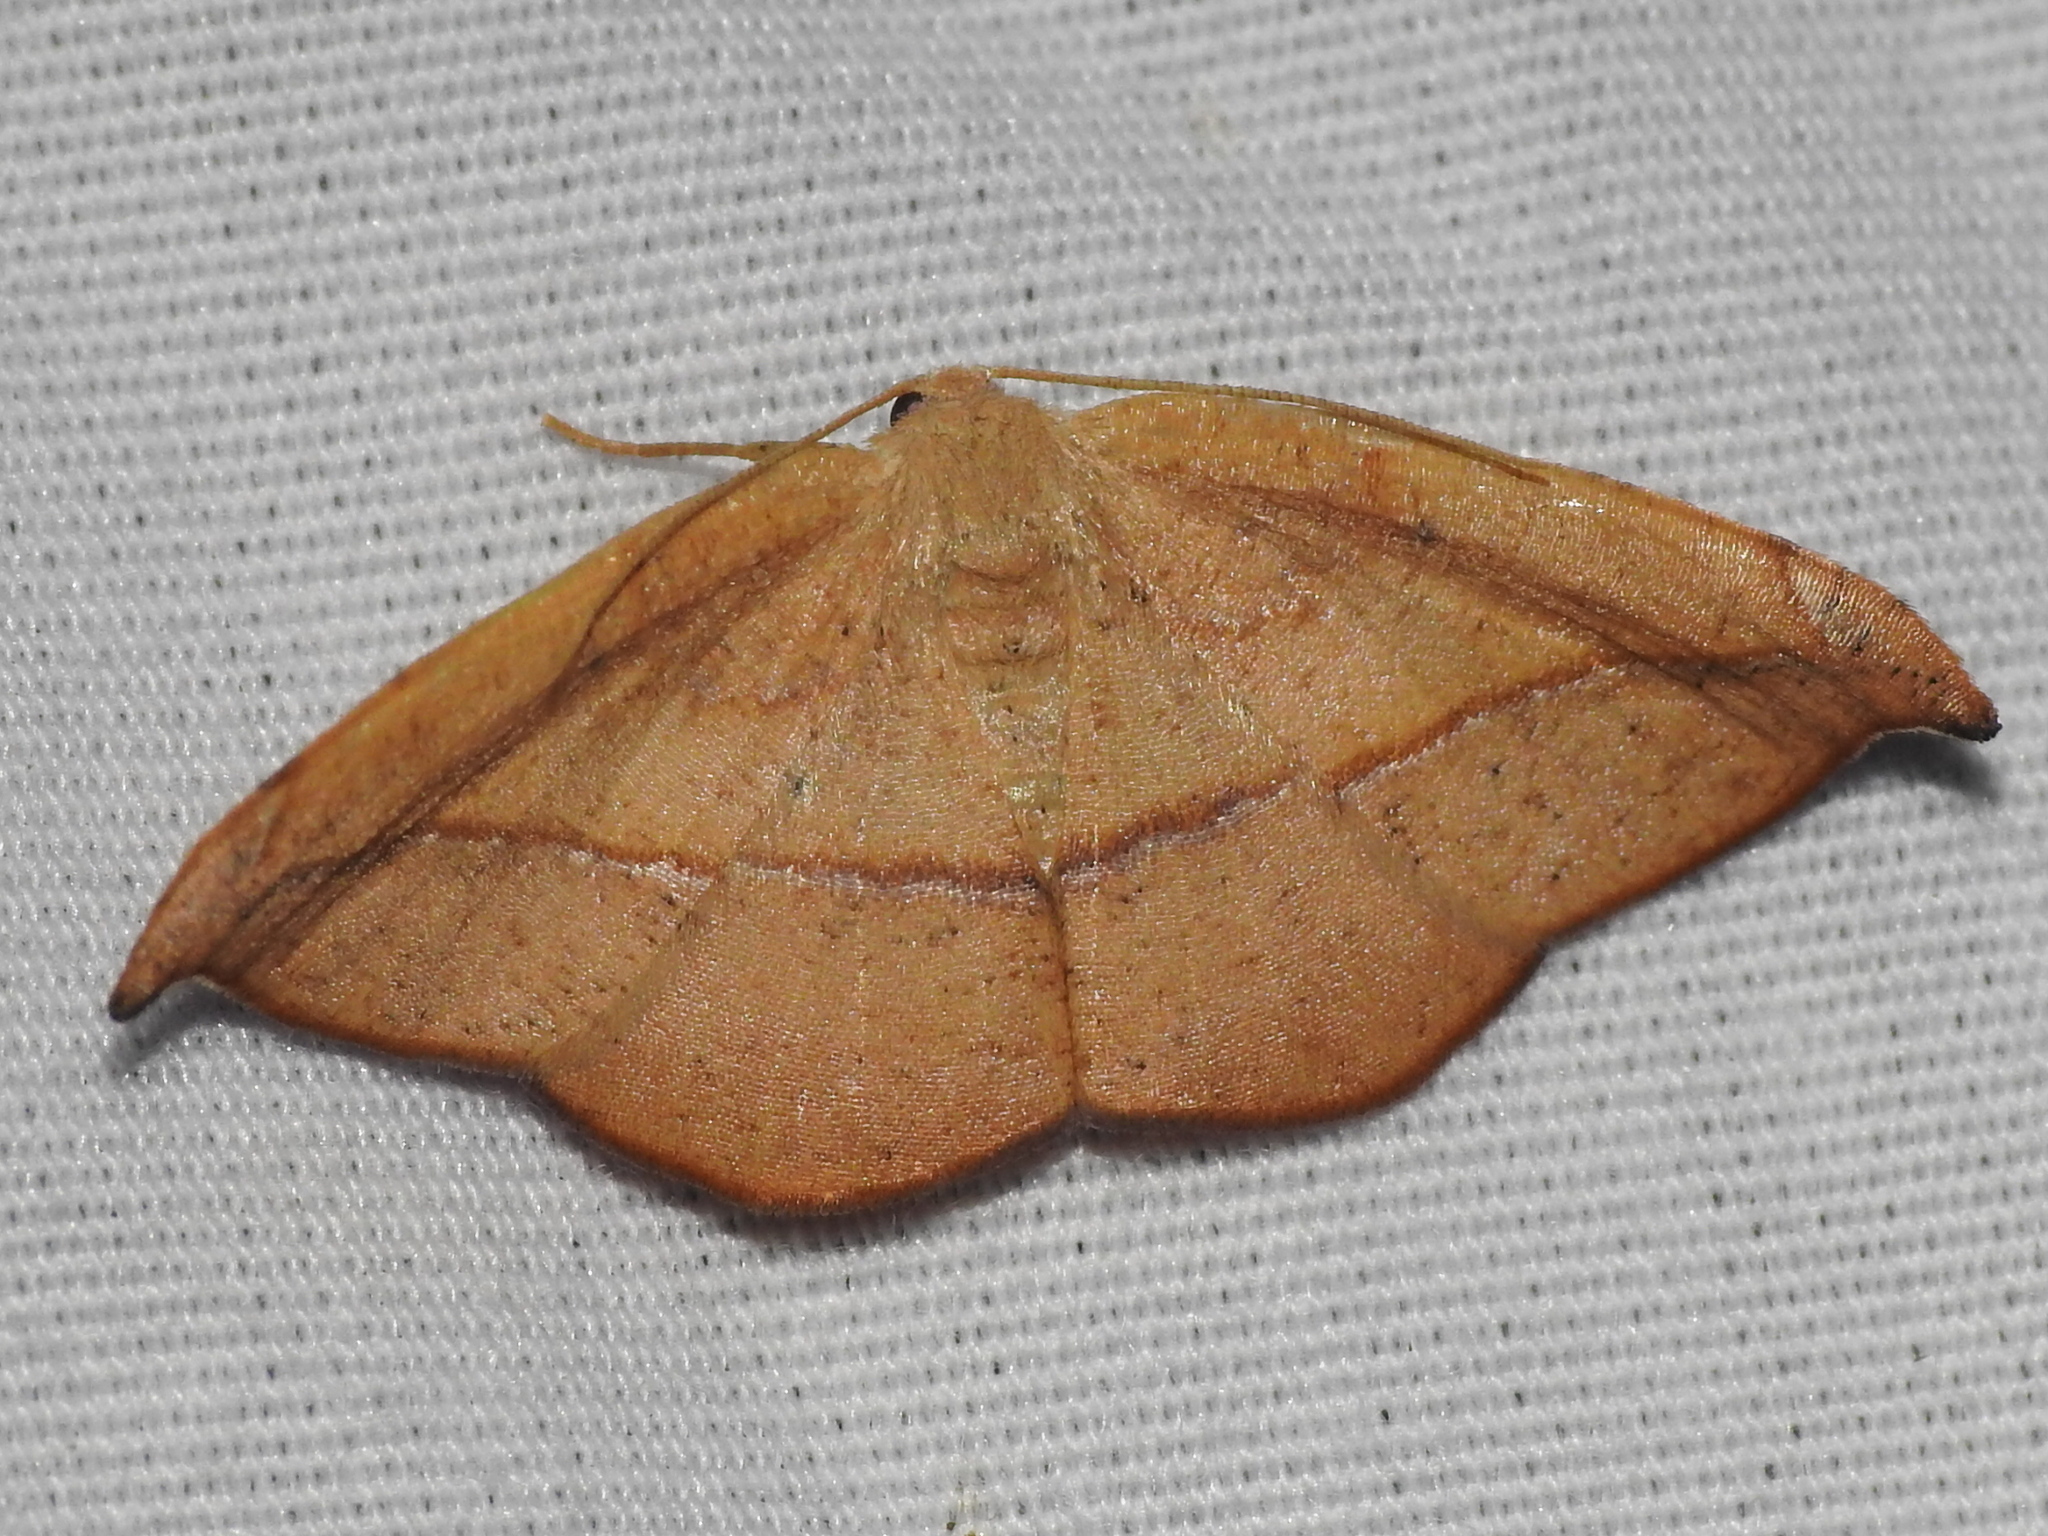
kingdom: Animalia
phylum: Arthropoda
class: Insecta
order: Lepidoptera
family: Geometridae
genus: Patalene
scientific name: Patalene olyzonaria
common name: Juniper geometer moth
